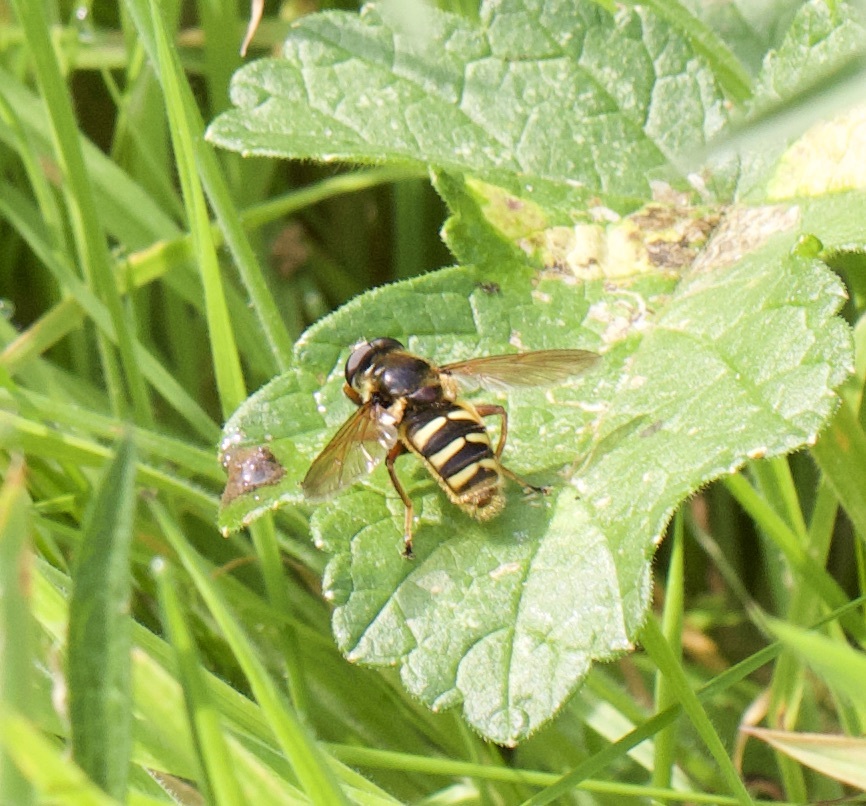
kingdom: Animalia
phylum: Arthropoda
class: Insecta
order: Diptera
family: Syrphidae
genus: Sericomyia
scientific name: Sericomyia silentis
